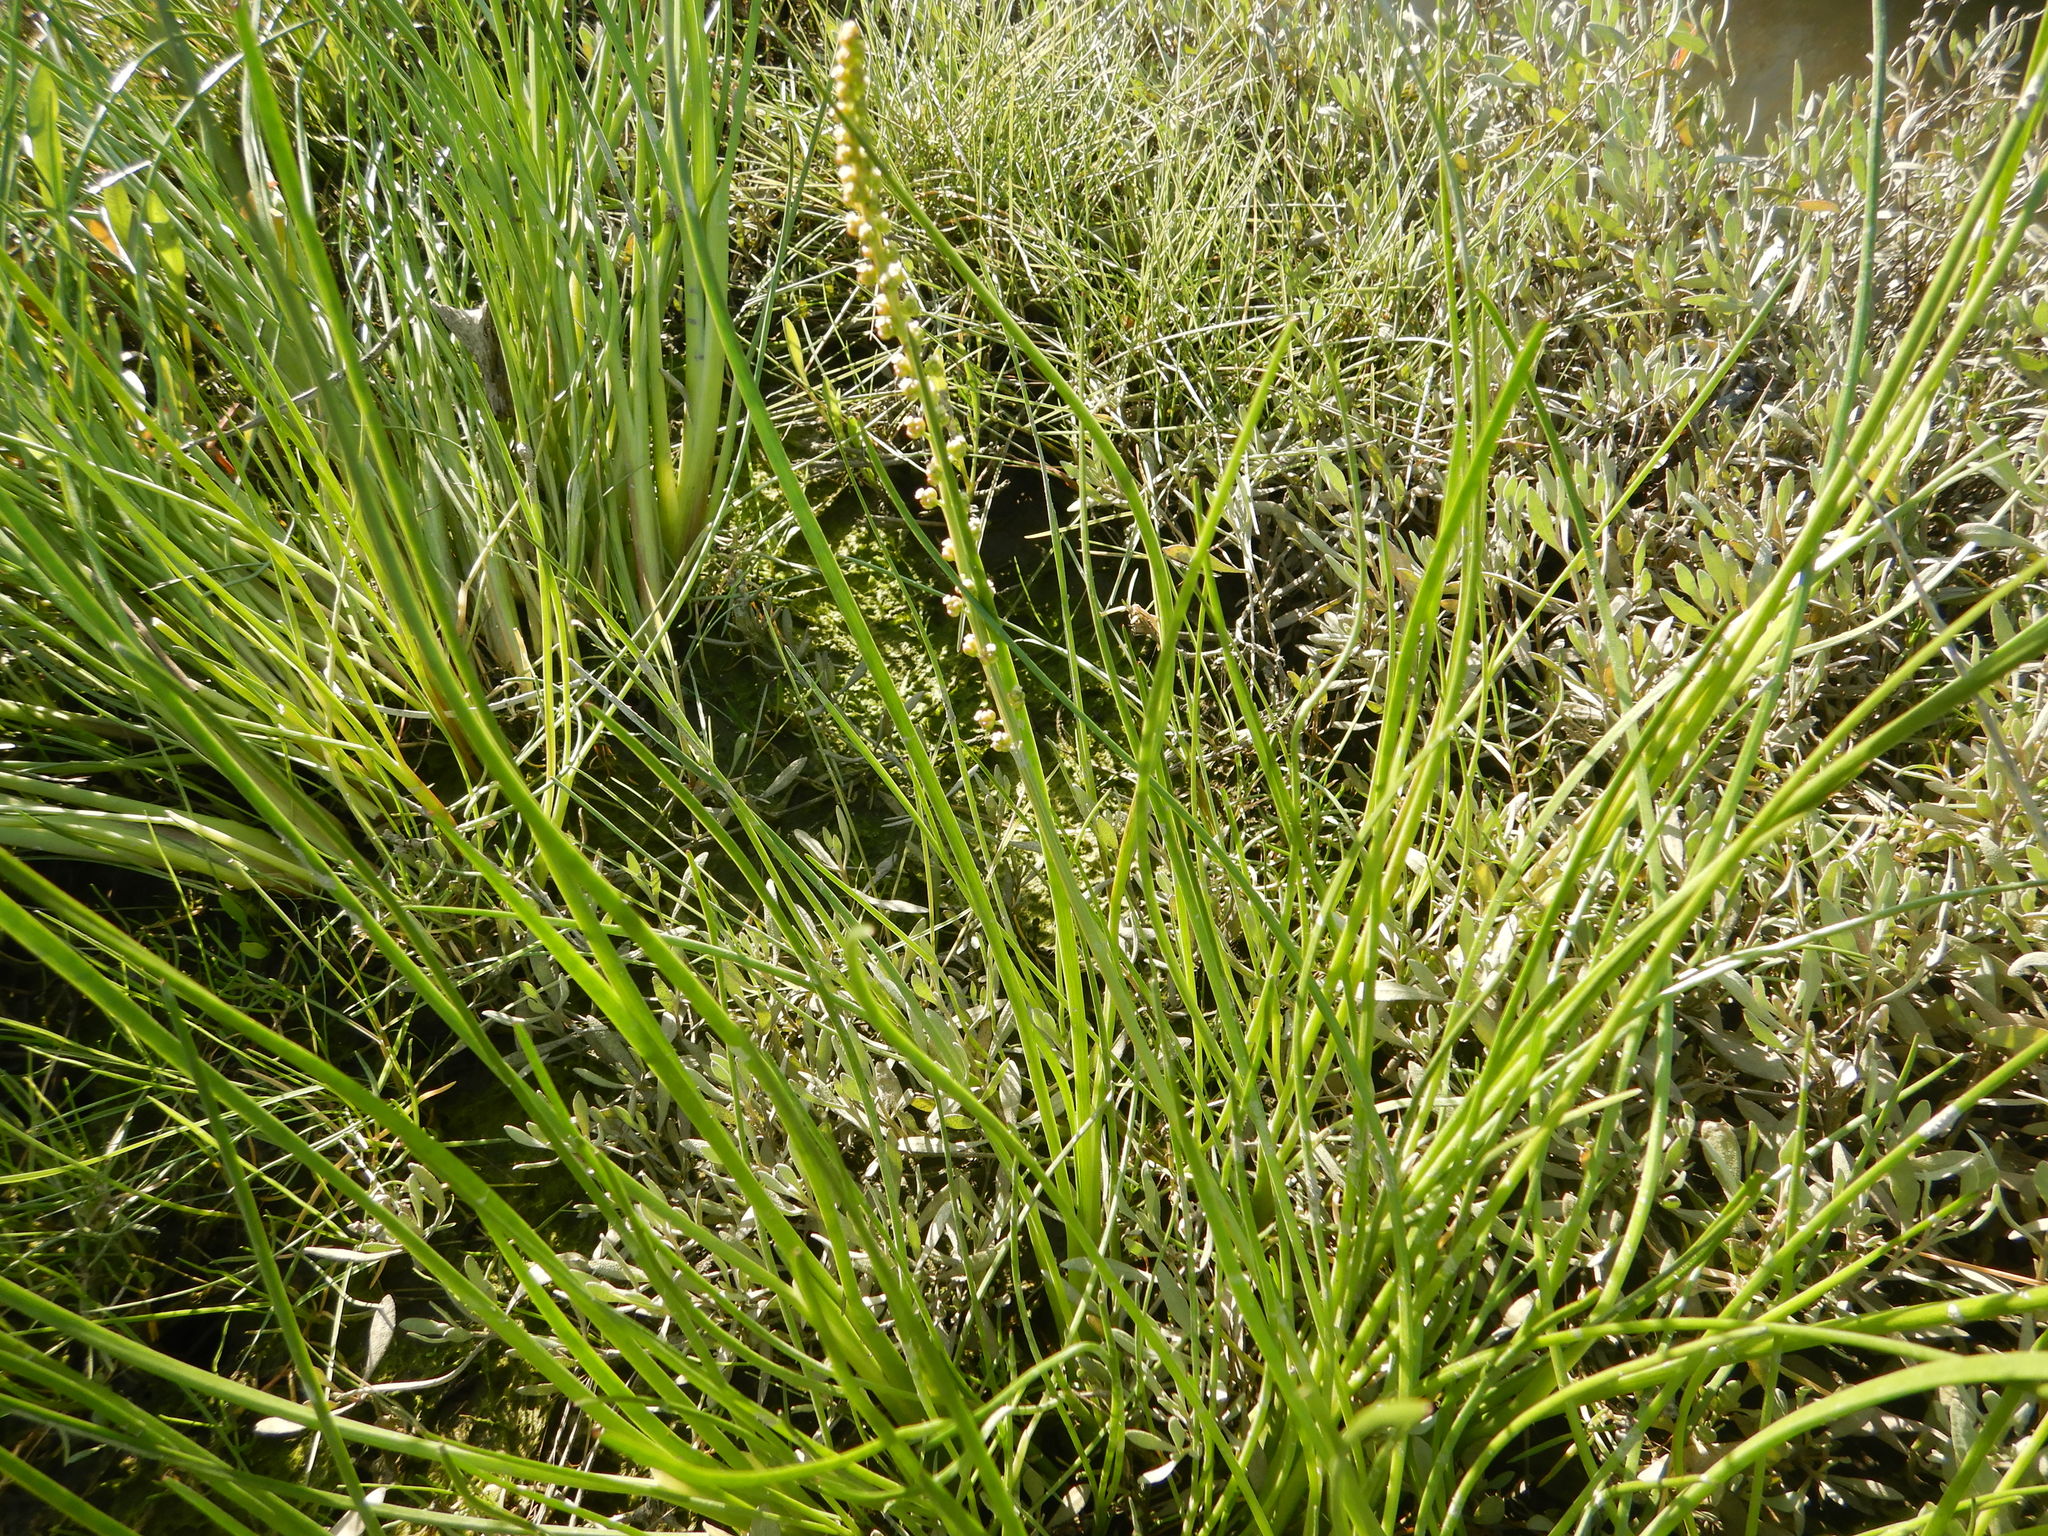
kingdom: Plantae
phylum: Tracheophyta
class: Liliopsida
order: Alismatales
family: Juncaginaceae
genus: Triglochin
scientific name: Triglochin maritima
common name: Sea arrowgrass
